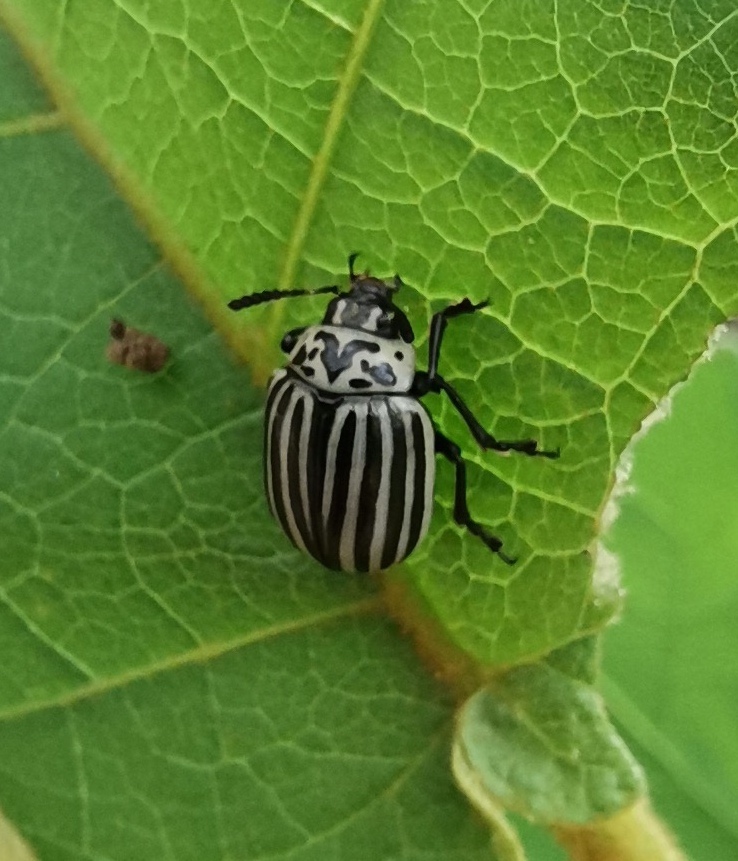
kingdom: Animalia
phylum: Arthropoda
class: Insecta
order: Coleoptera
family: Chrysomelidae
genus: Leptinotarsa
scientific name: Leptinotarsa
